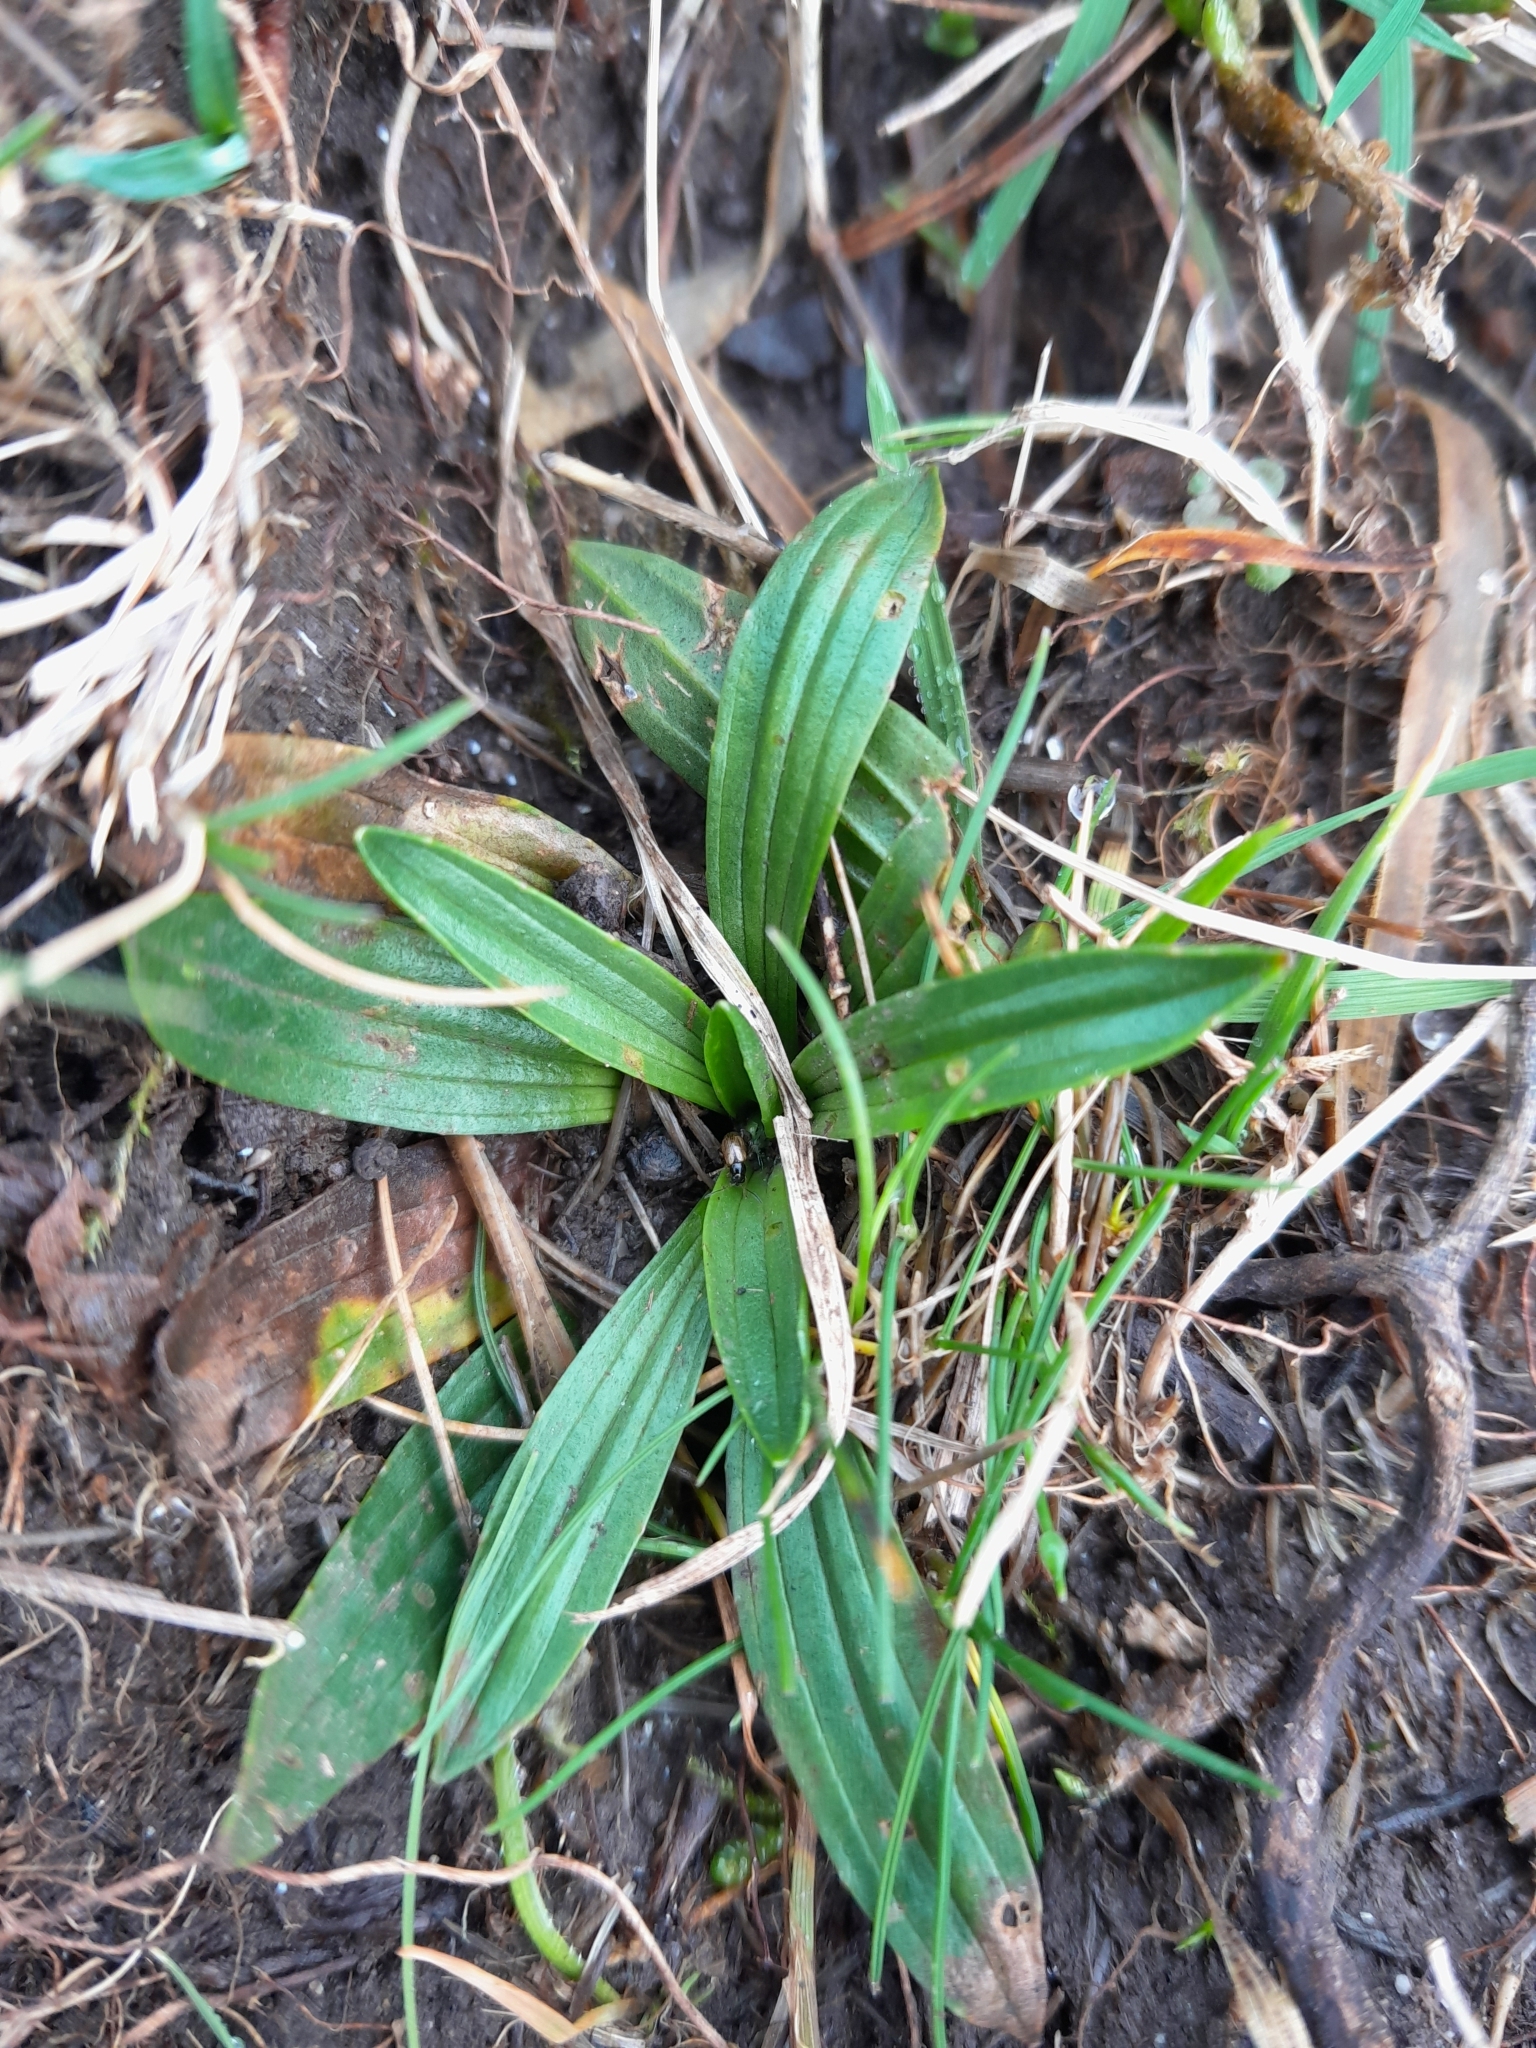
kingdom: Plantae
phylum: Tracheophyta
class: Magnoliopsida
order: Lamiales
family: Plantaginaceae
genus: Plantago
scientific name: Plantago lanceolata
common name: Ribwort plantain
